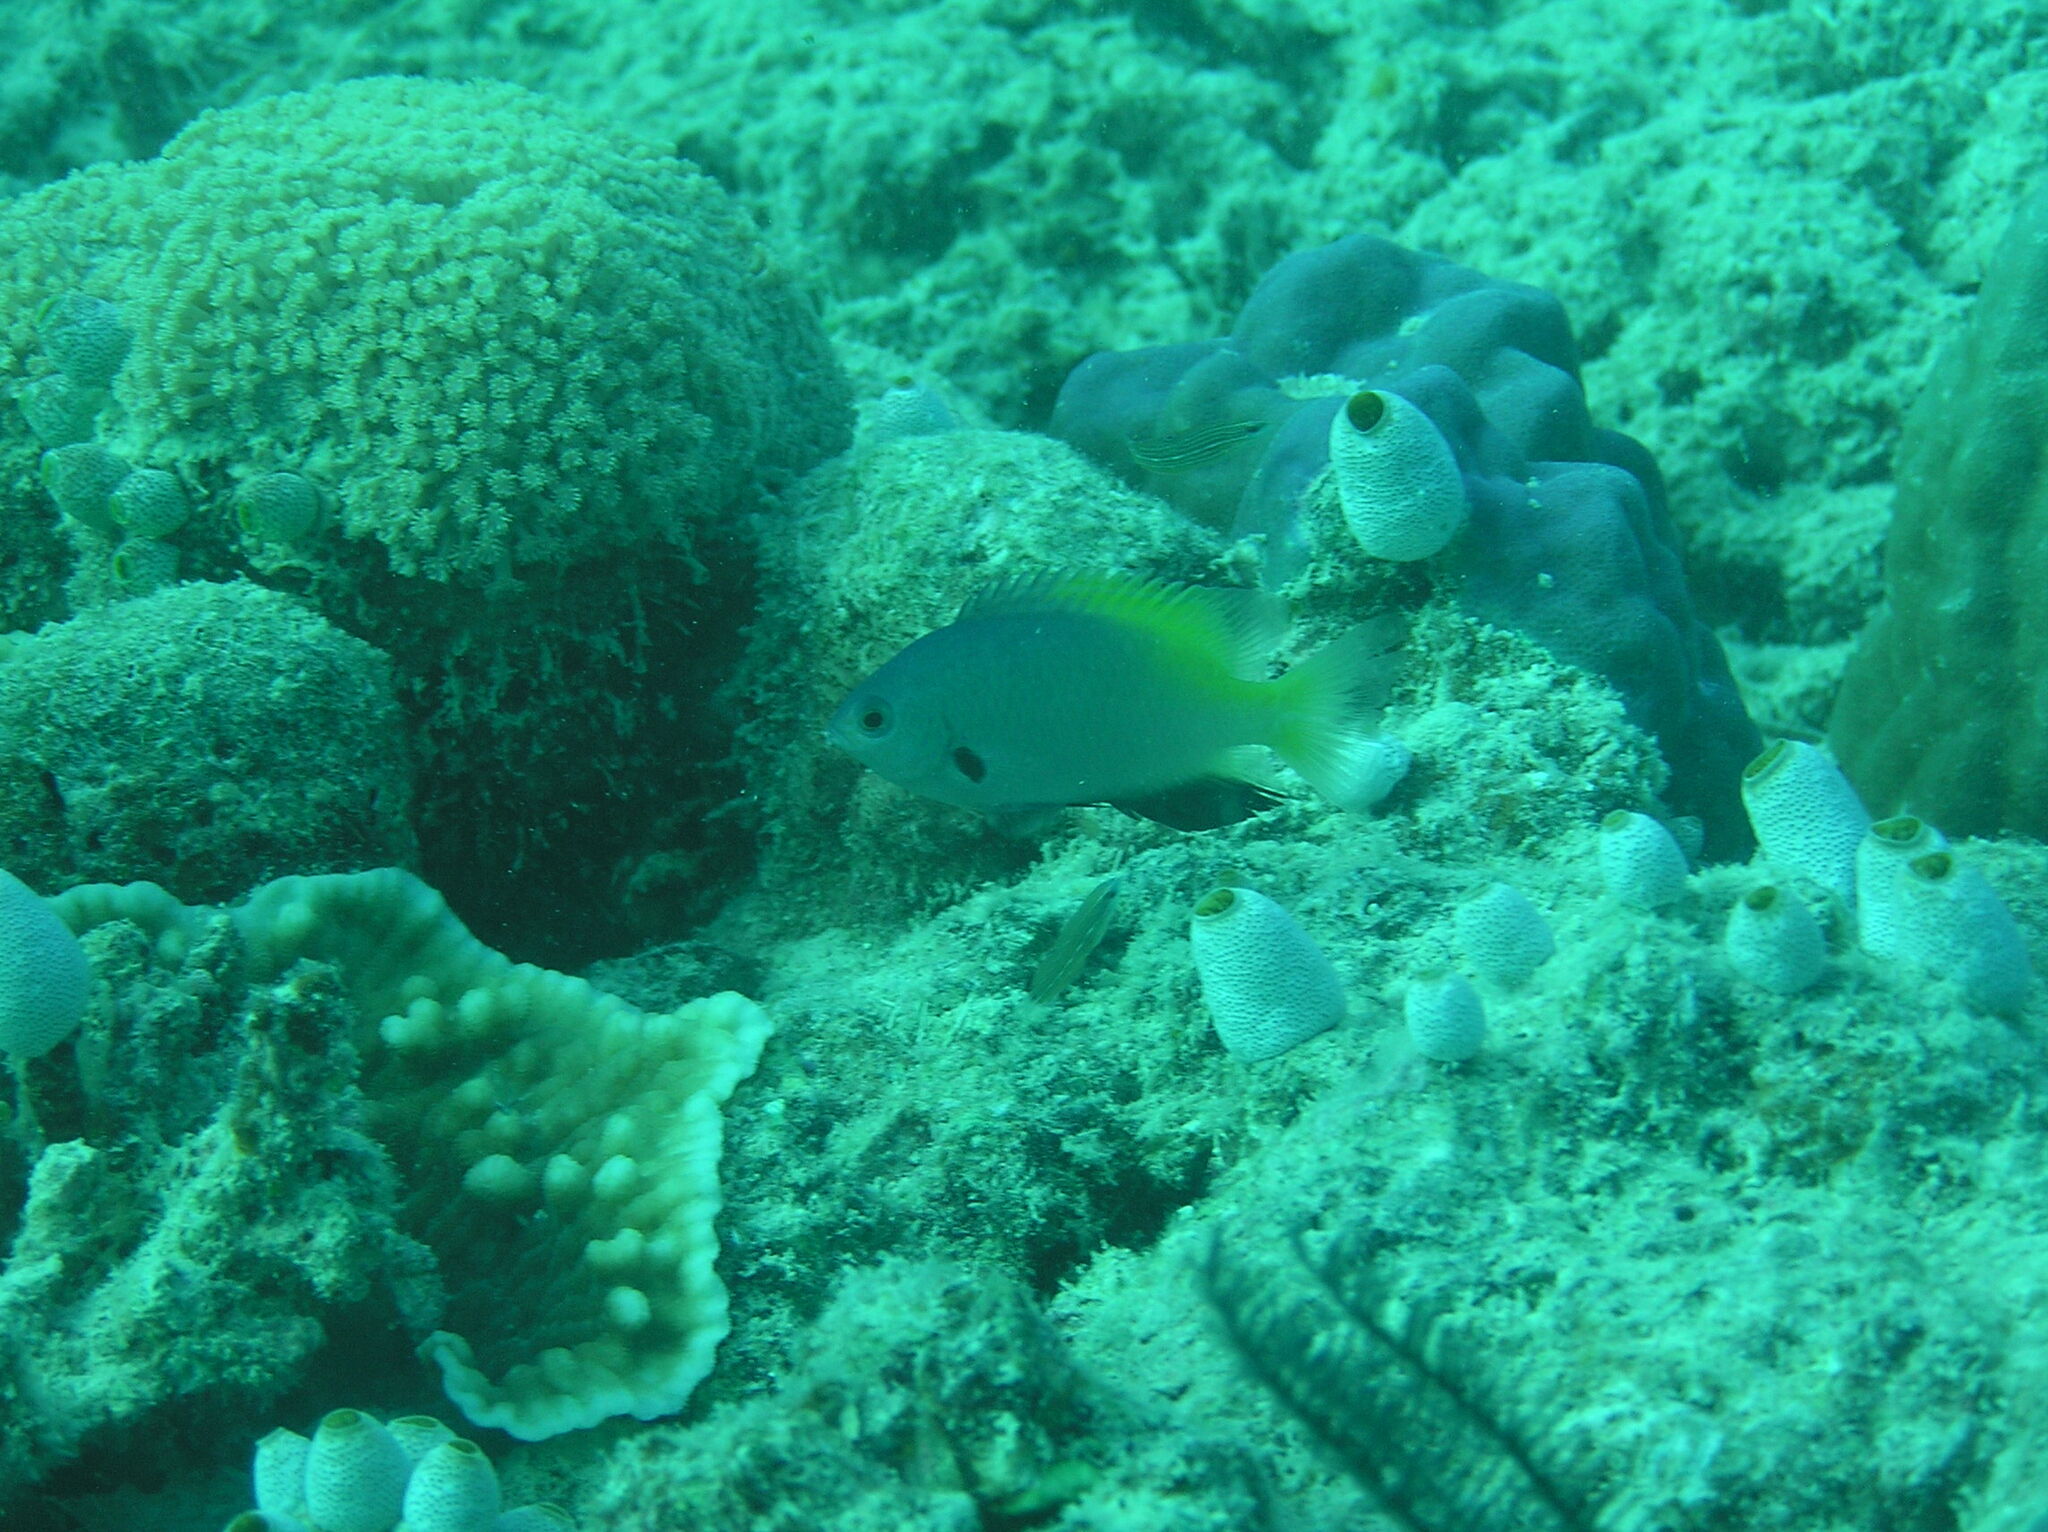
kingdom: Animalia
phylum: Chordata
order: Perciformes
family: Pomacentridae
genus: Pomacentrus
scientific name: Pomacentrus nigromanus
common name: Black-axil damsel
